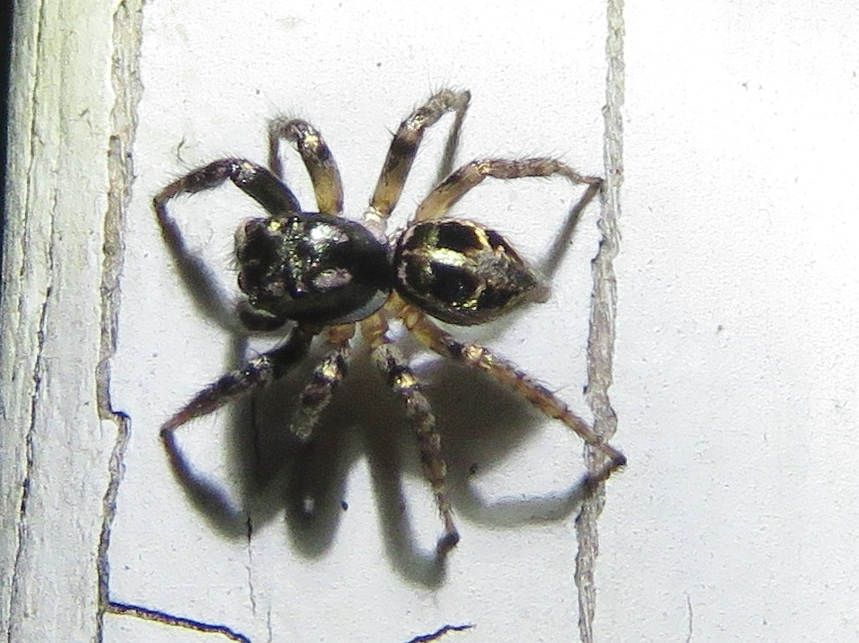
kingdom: Animalia
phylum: Arthropoda
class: Arachnida
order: Araneae
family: Salticidae
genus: Anasaitis
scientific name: Anasaitis canosa
